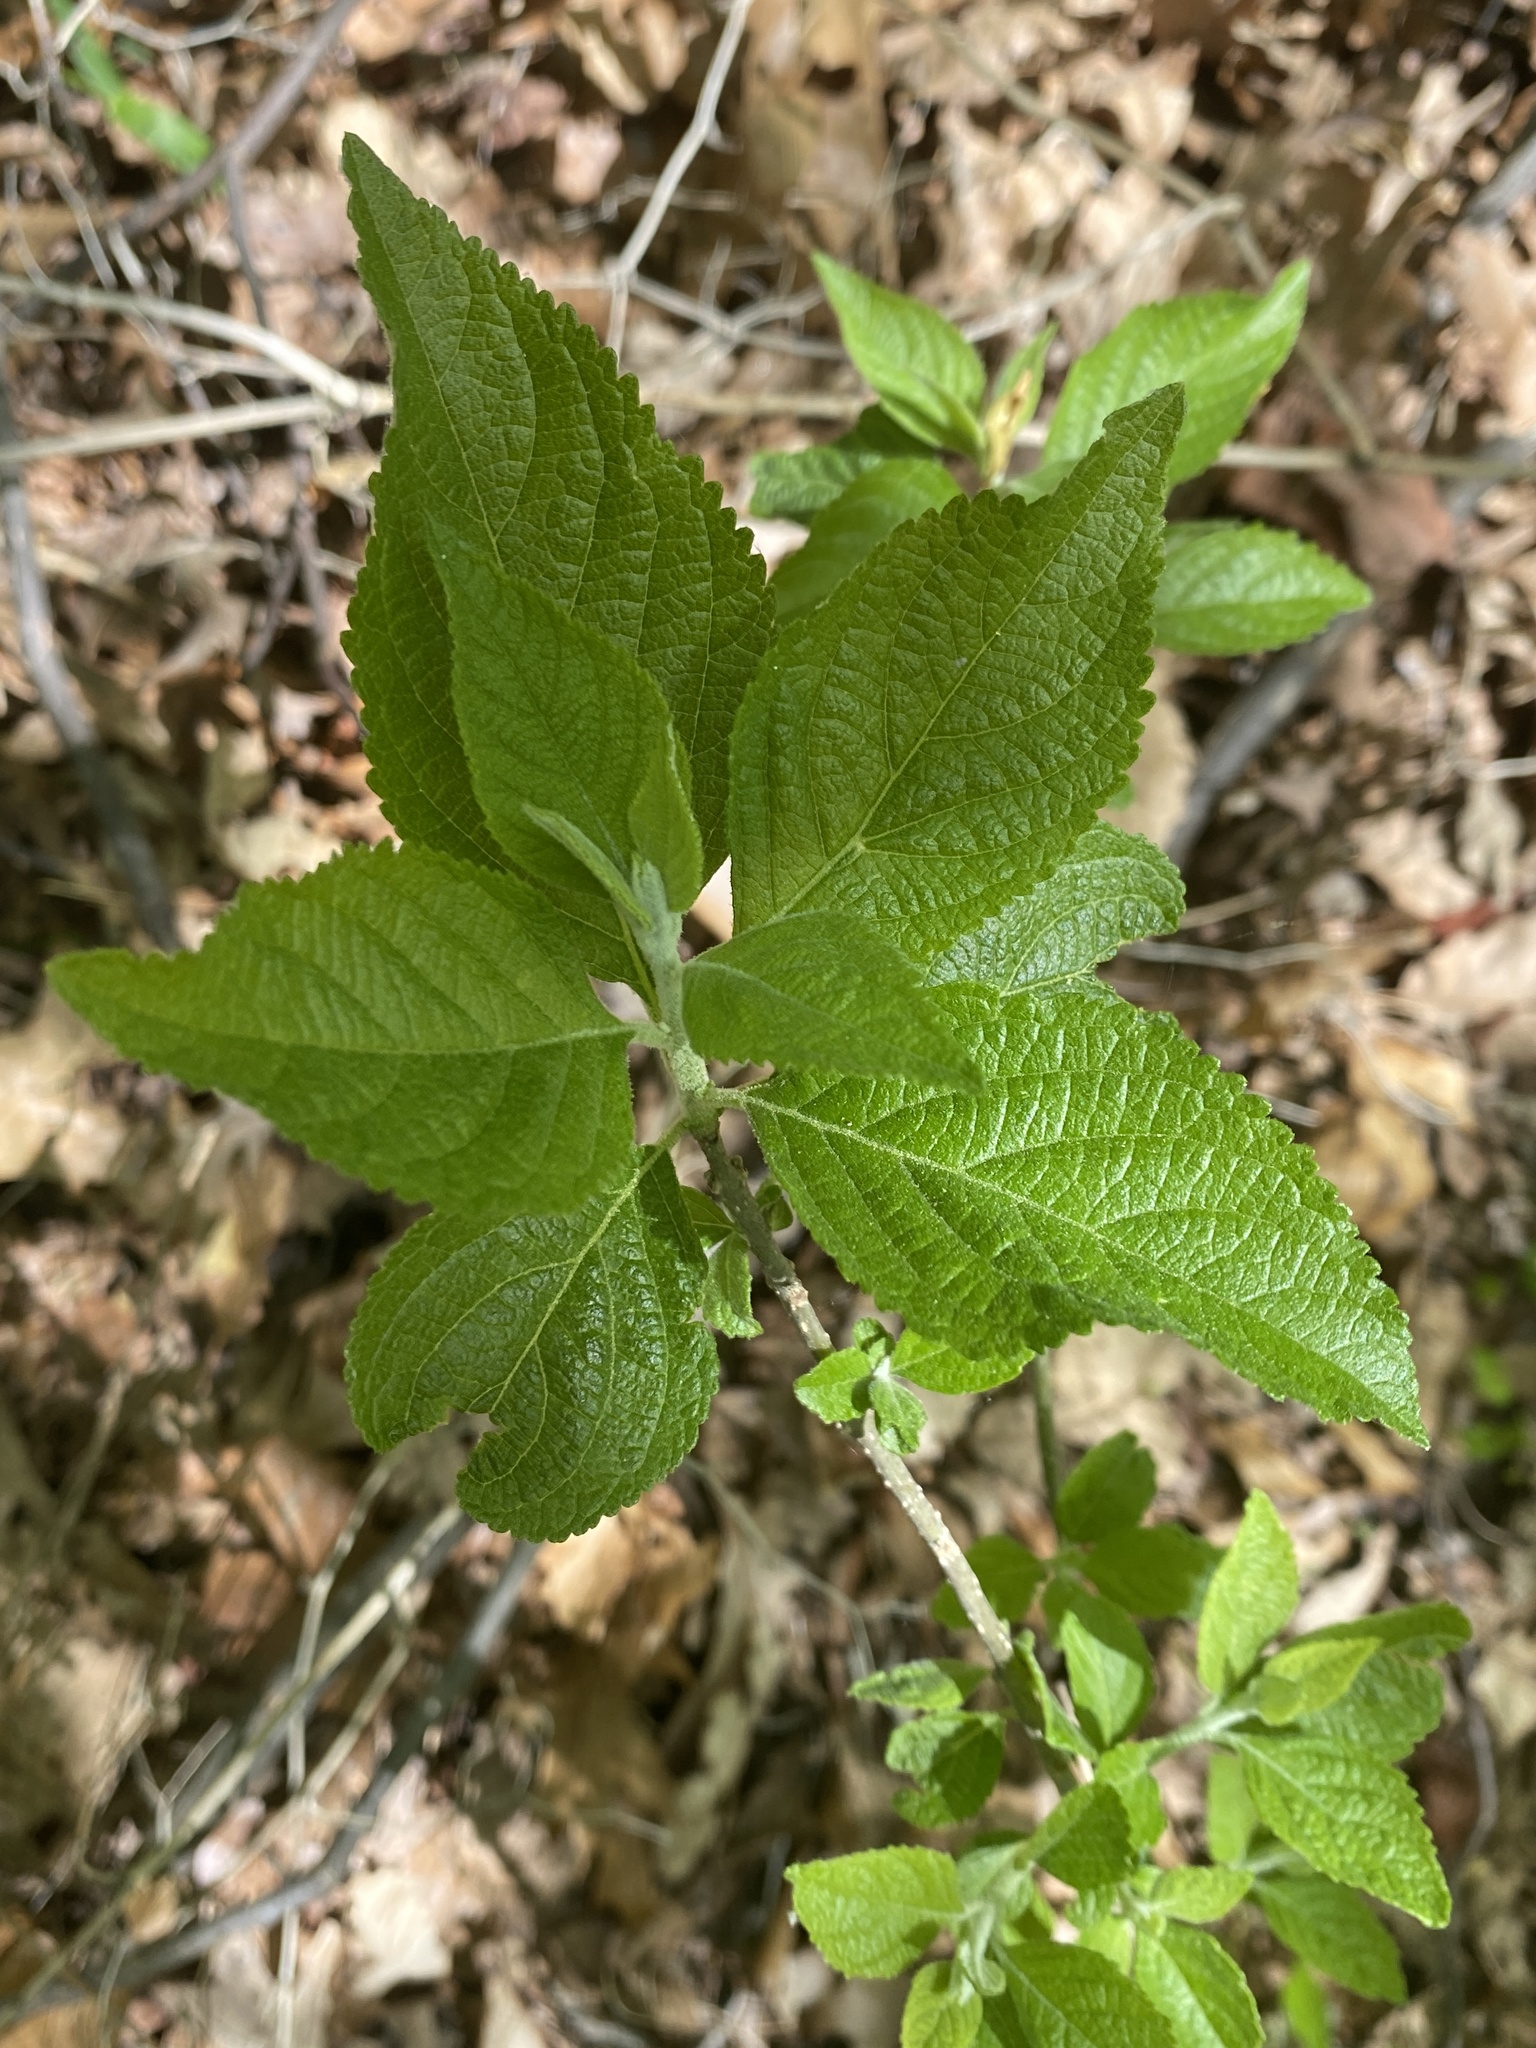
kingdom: Plantae
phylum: Tracheophyta
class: Magnoliopsida
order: Lamiales
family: Lamiaceae
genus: Callicarpa
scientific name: Callicarpa americana
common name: American beautyberry
